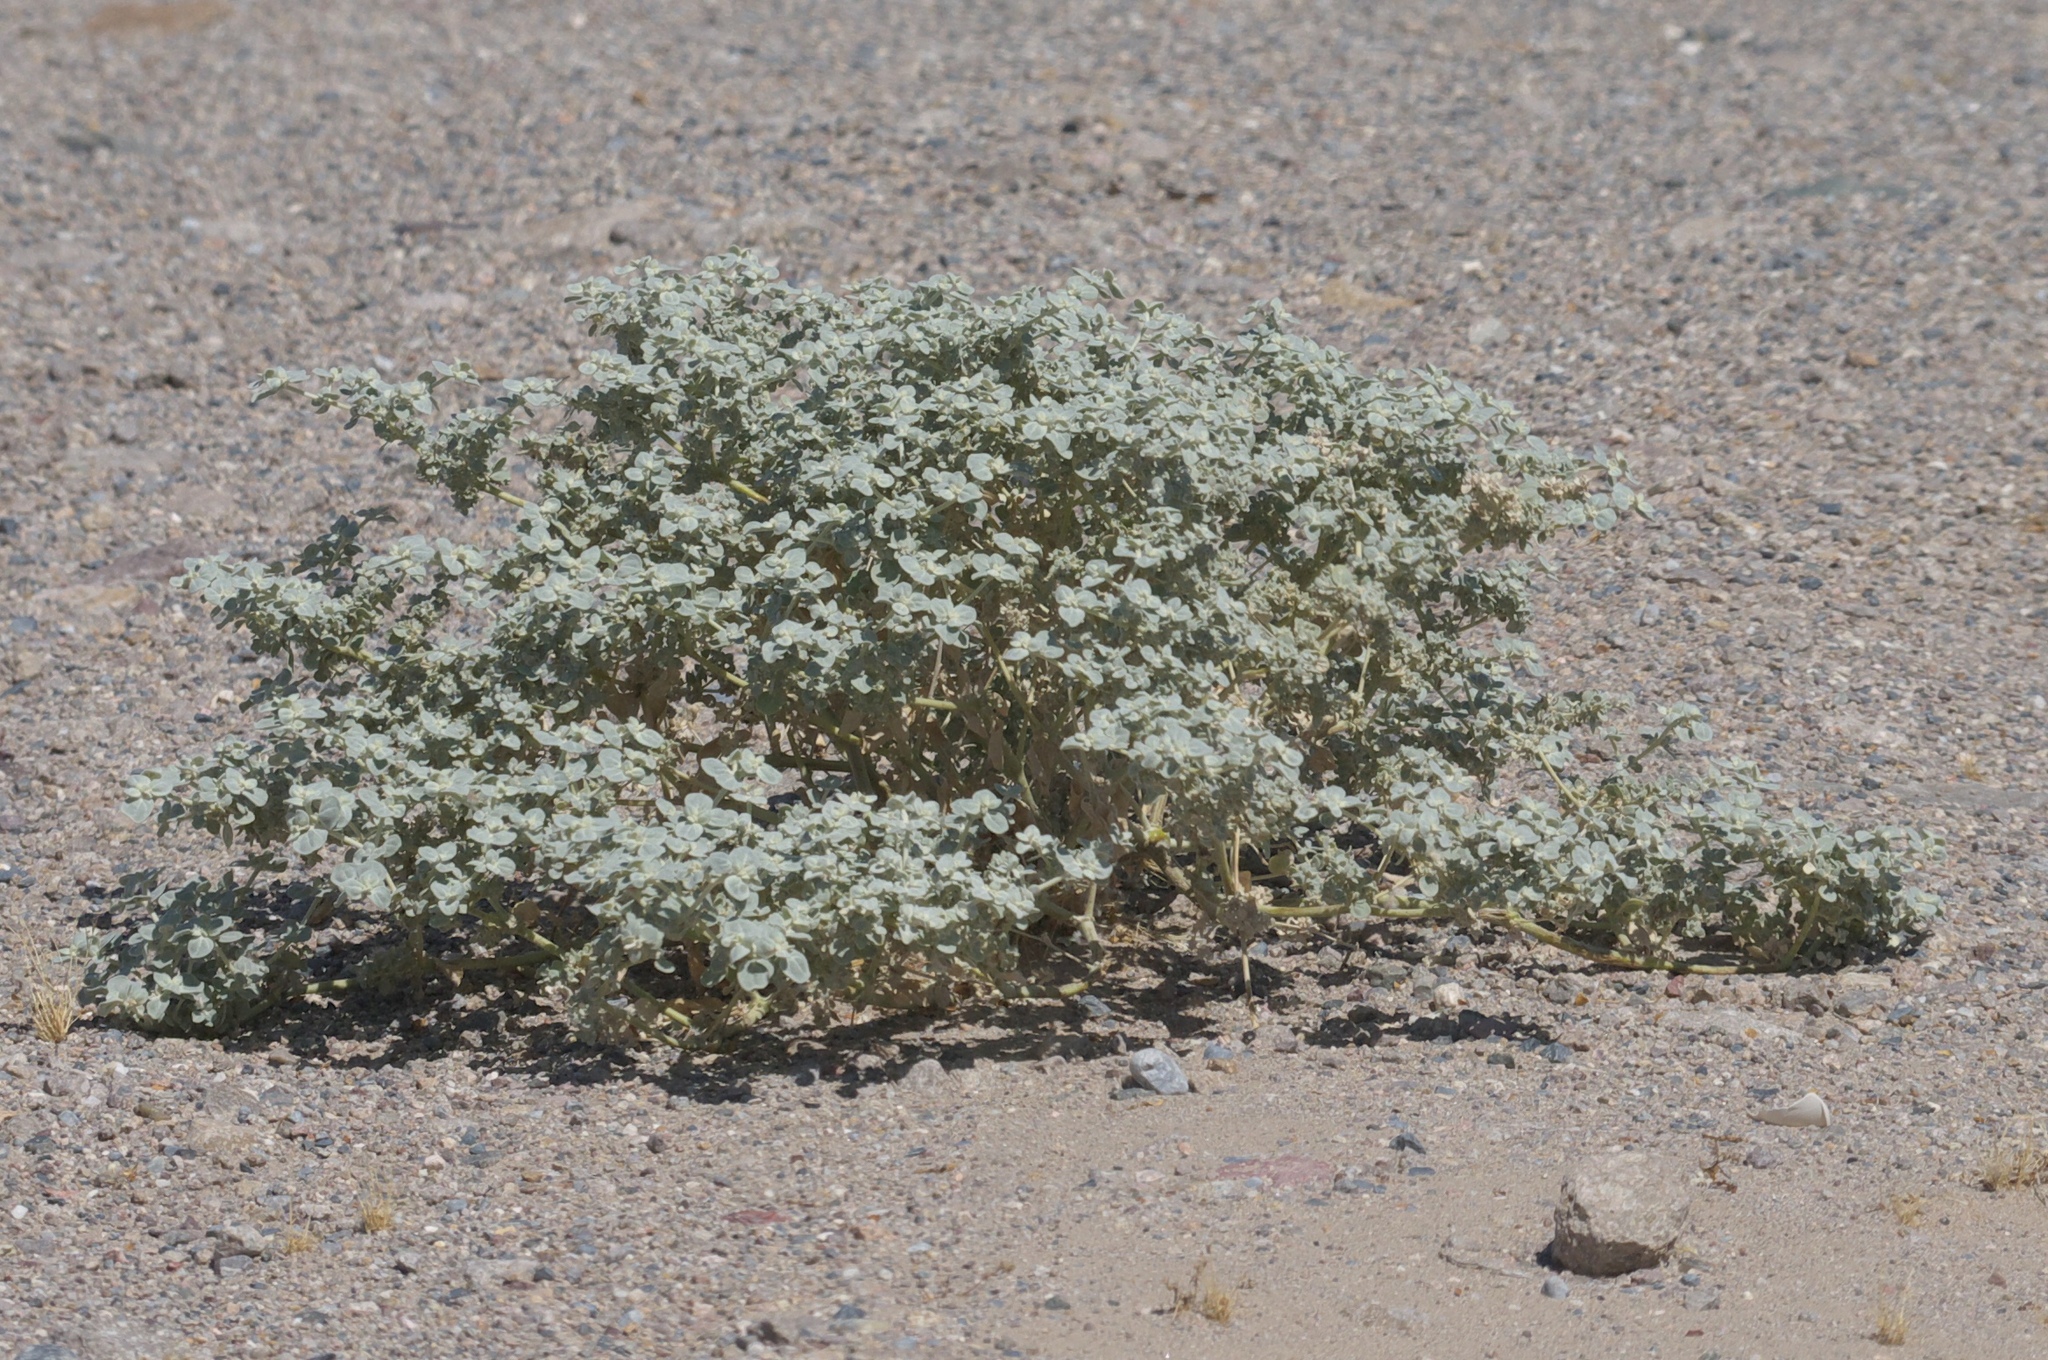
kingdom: Plantae
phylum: Tracheophyta
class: Magnoliopsida
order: Caryophyllales
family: Amaranthaceae
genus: Tidestromia
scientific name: Tidestromia suffruticosa
